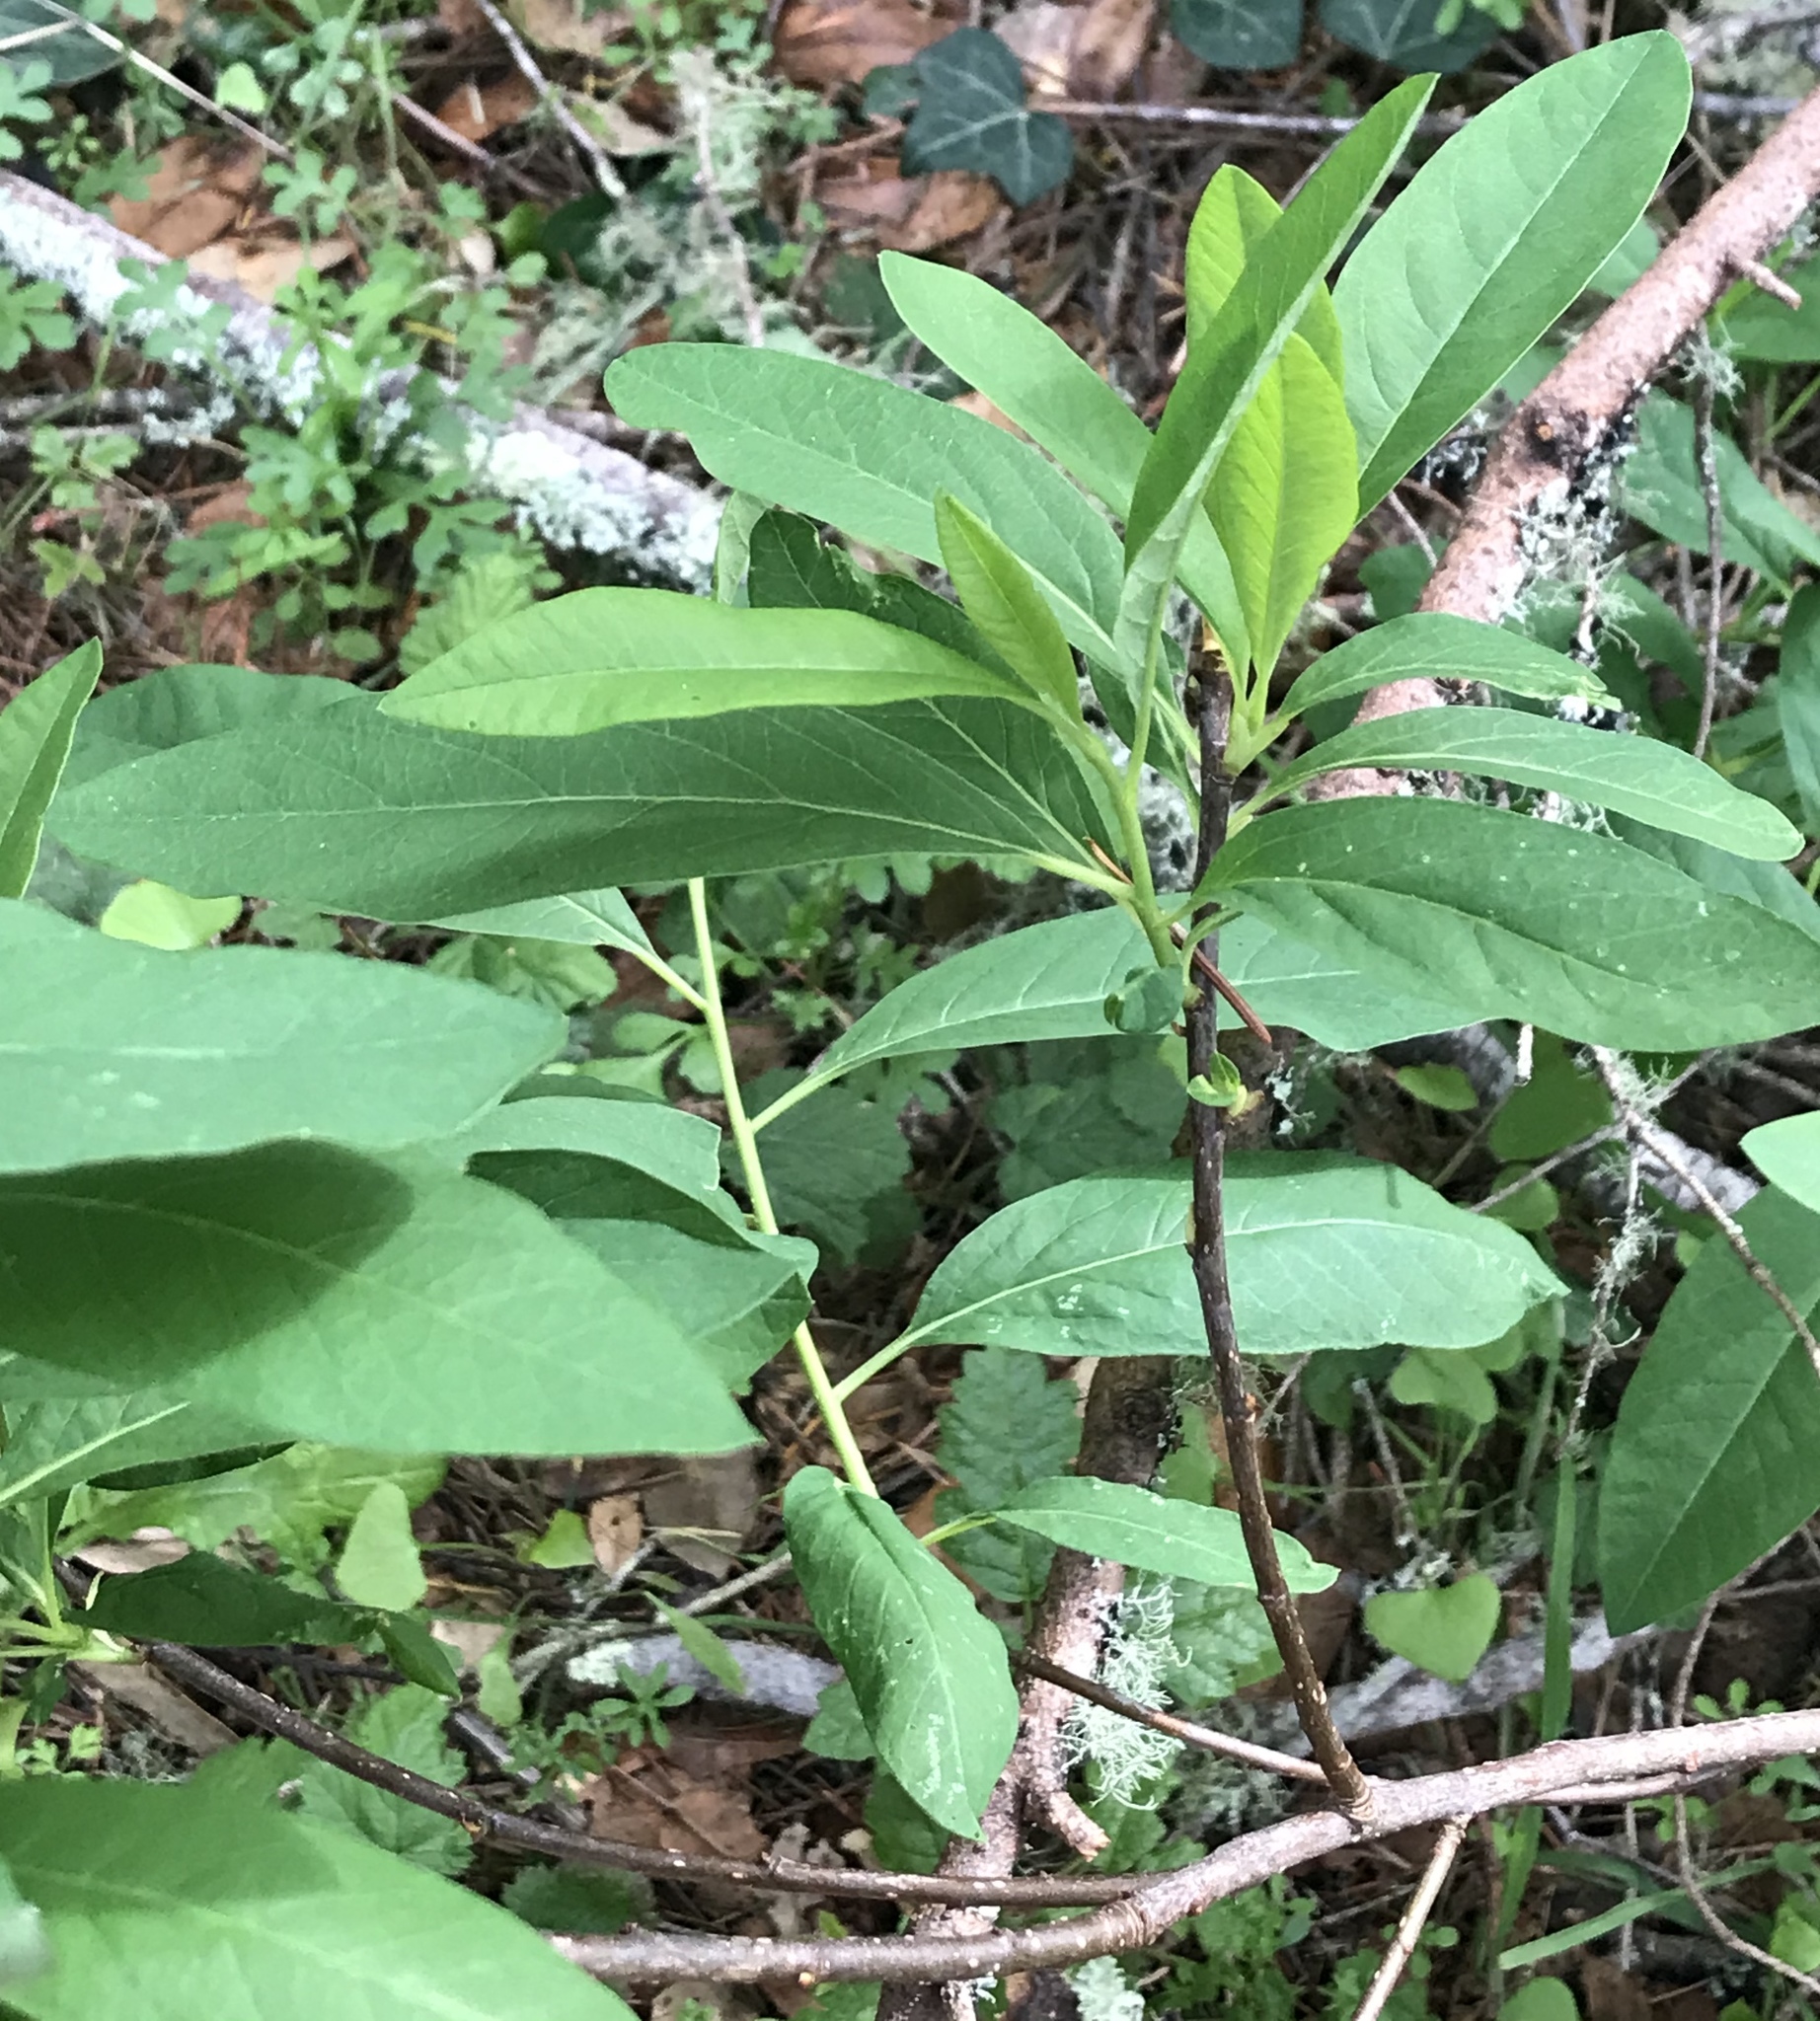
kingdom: Plantae
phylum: Tracheophyta
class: Magnoliopsida
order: Rosales
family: Rosaceae
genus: Oemleria
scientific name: Oemleria cerasiformis
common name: Osoberry
